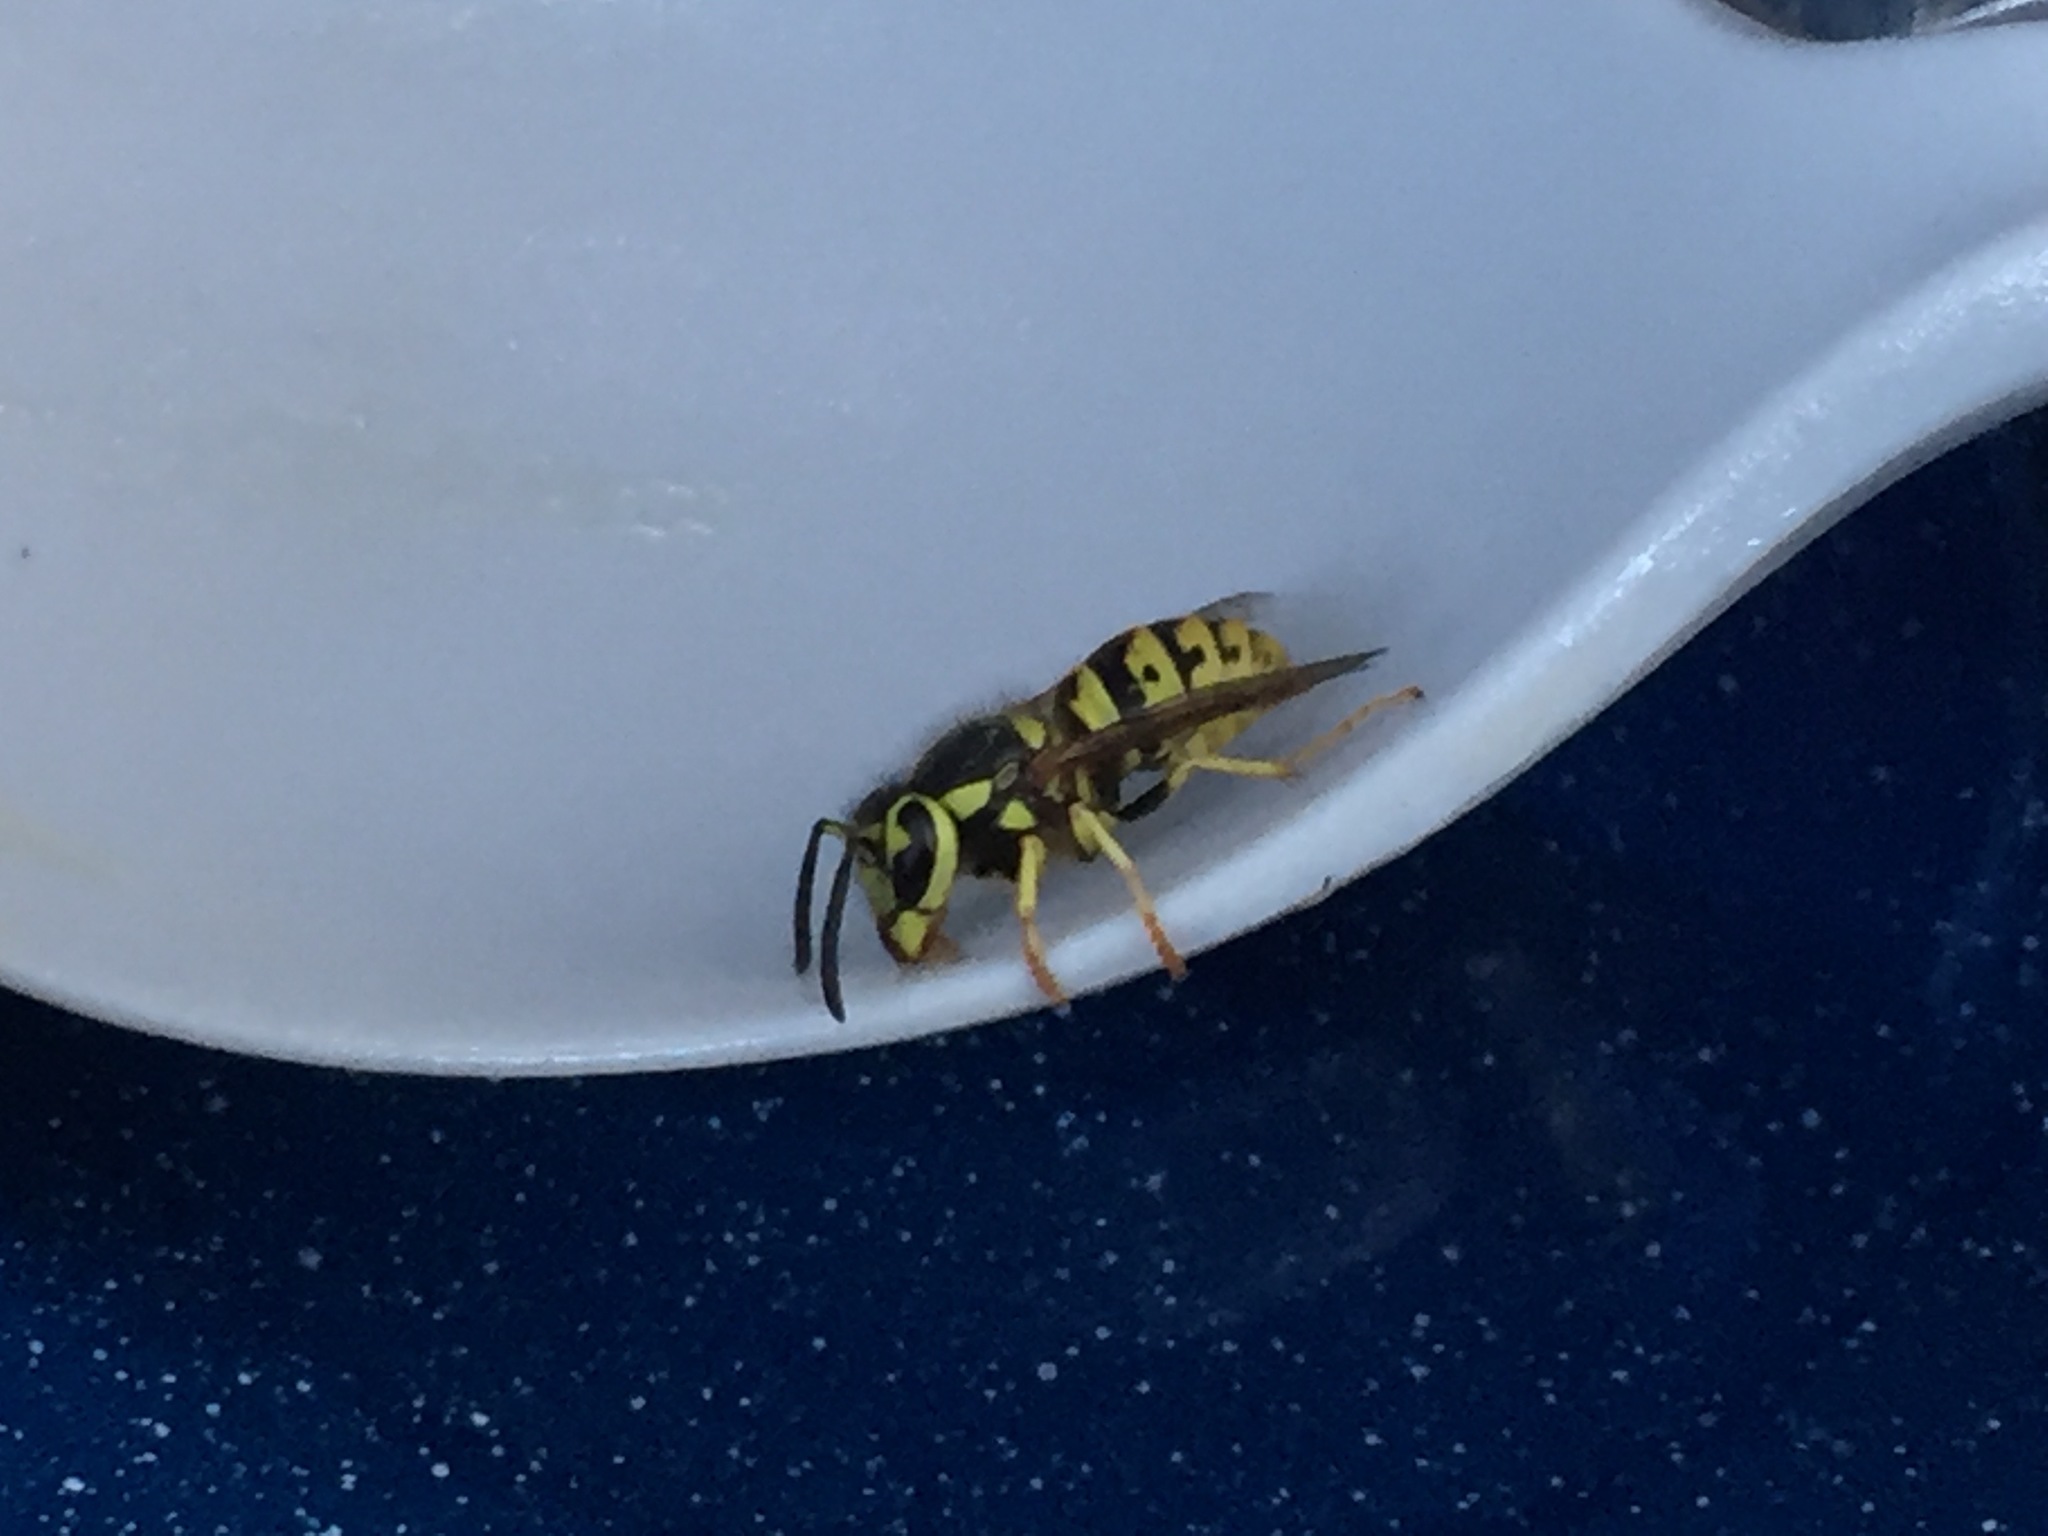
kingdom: Animalia
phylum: Arthropoda
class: Insecta
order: Hymenoptera
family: Vespidae
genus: Vespula
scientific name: Vespula pensylvanica
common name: Western yellowjacket
